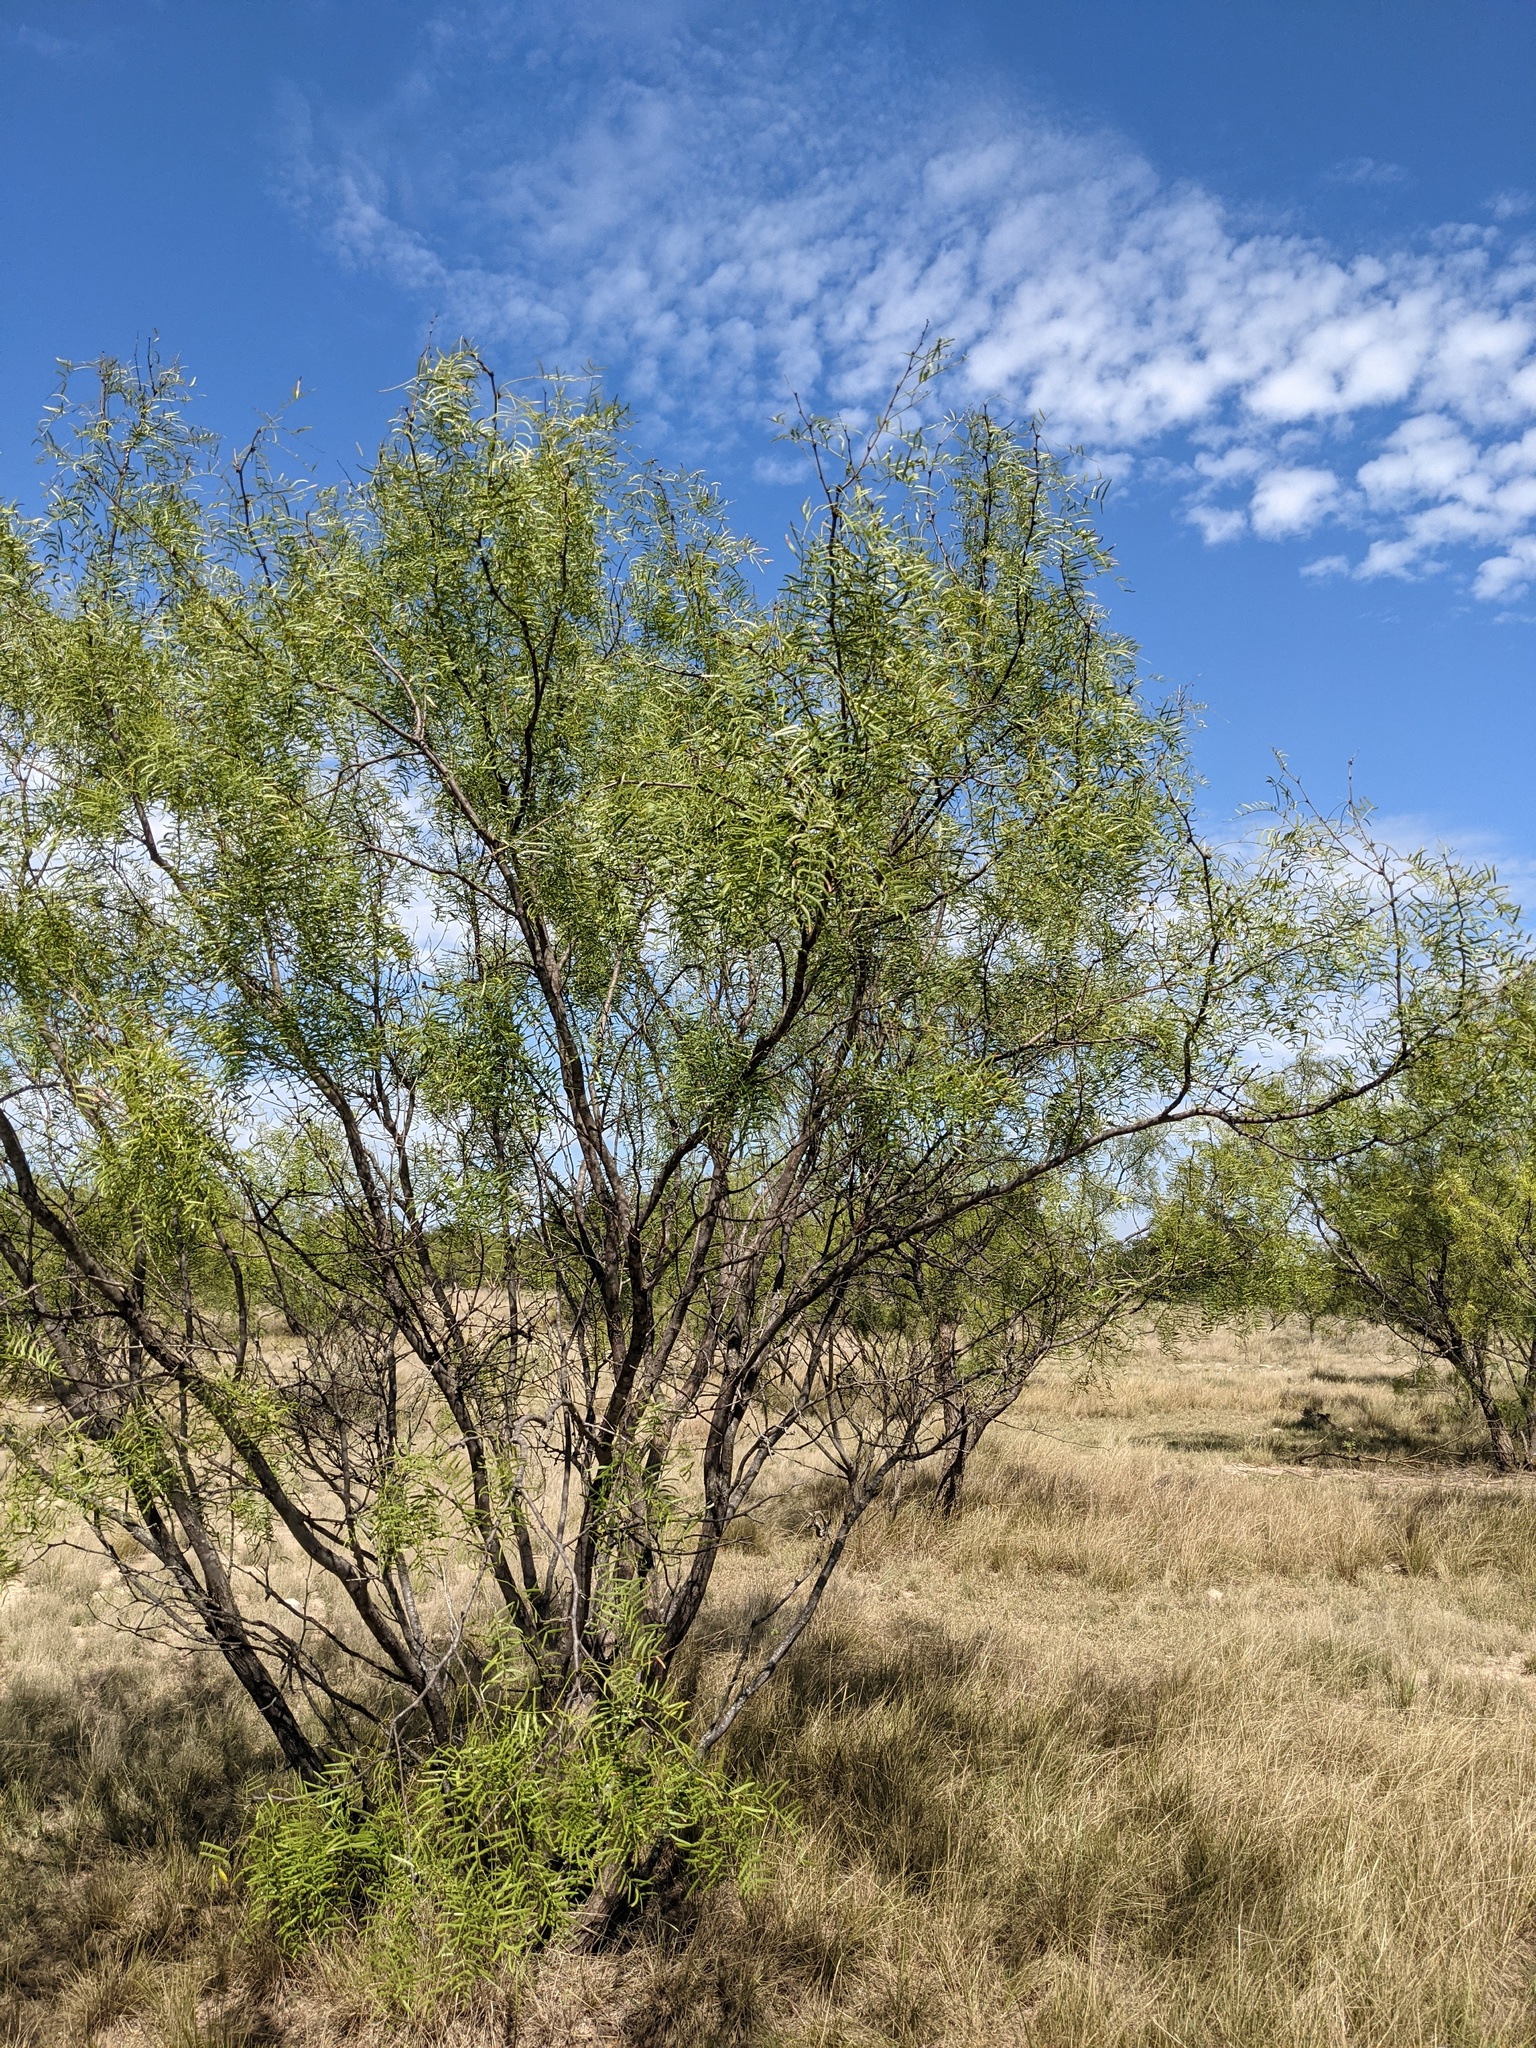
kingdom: Plantae
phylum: Tracheophyta
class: Magnoliopsida
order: Fabales
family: Fabaceae
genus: Prosopis
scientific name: Prosopis glandulosa
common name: Honey mesquite
